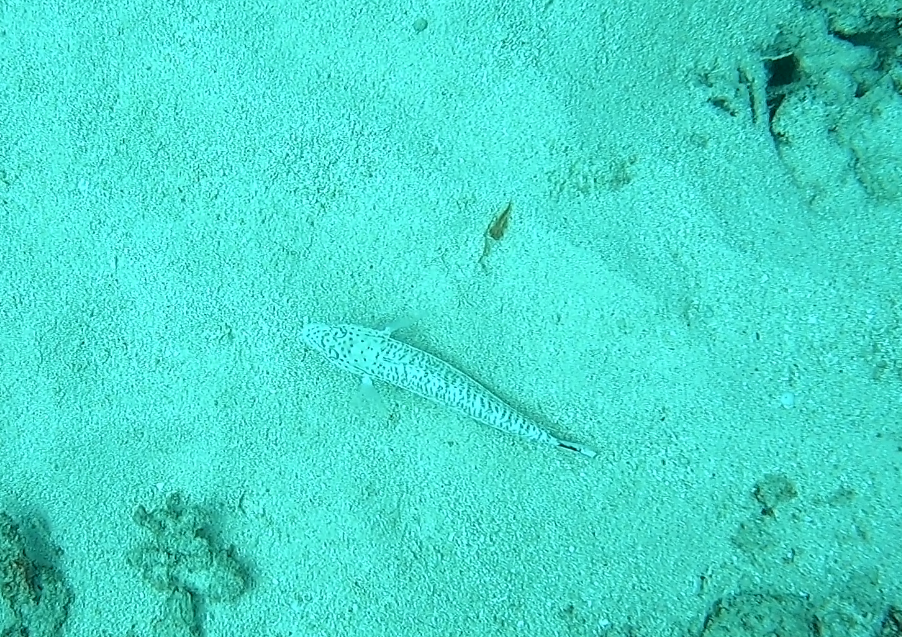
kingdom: Animalia
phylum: Chordata
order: Perciformes
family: Pinguipedidae
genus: Parapercis
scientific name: Parapercis queenslandica
